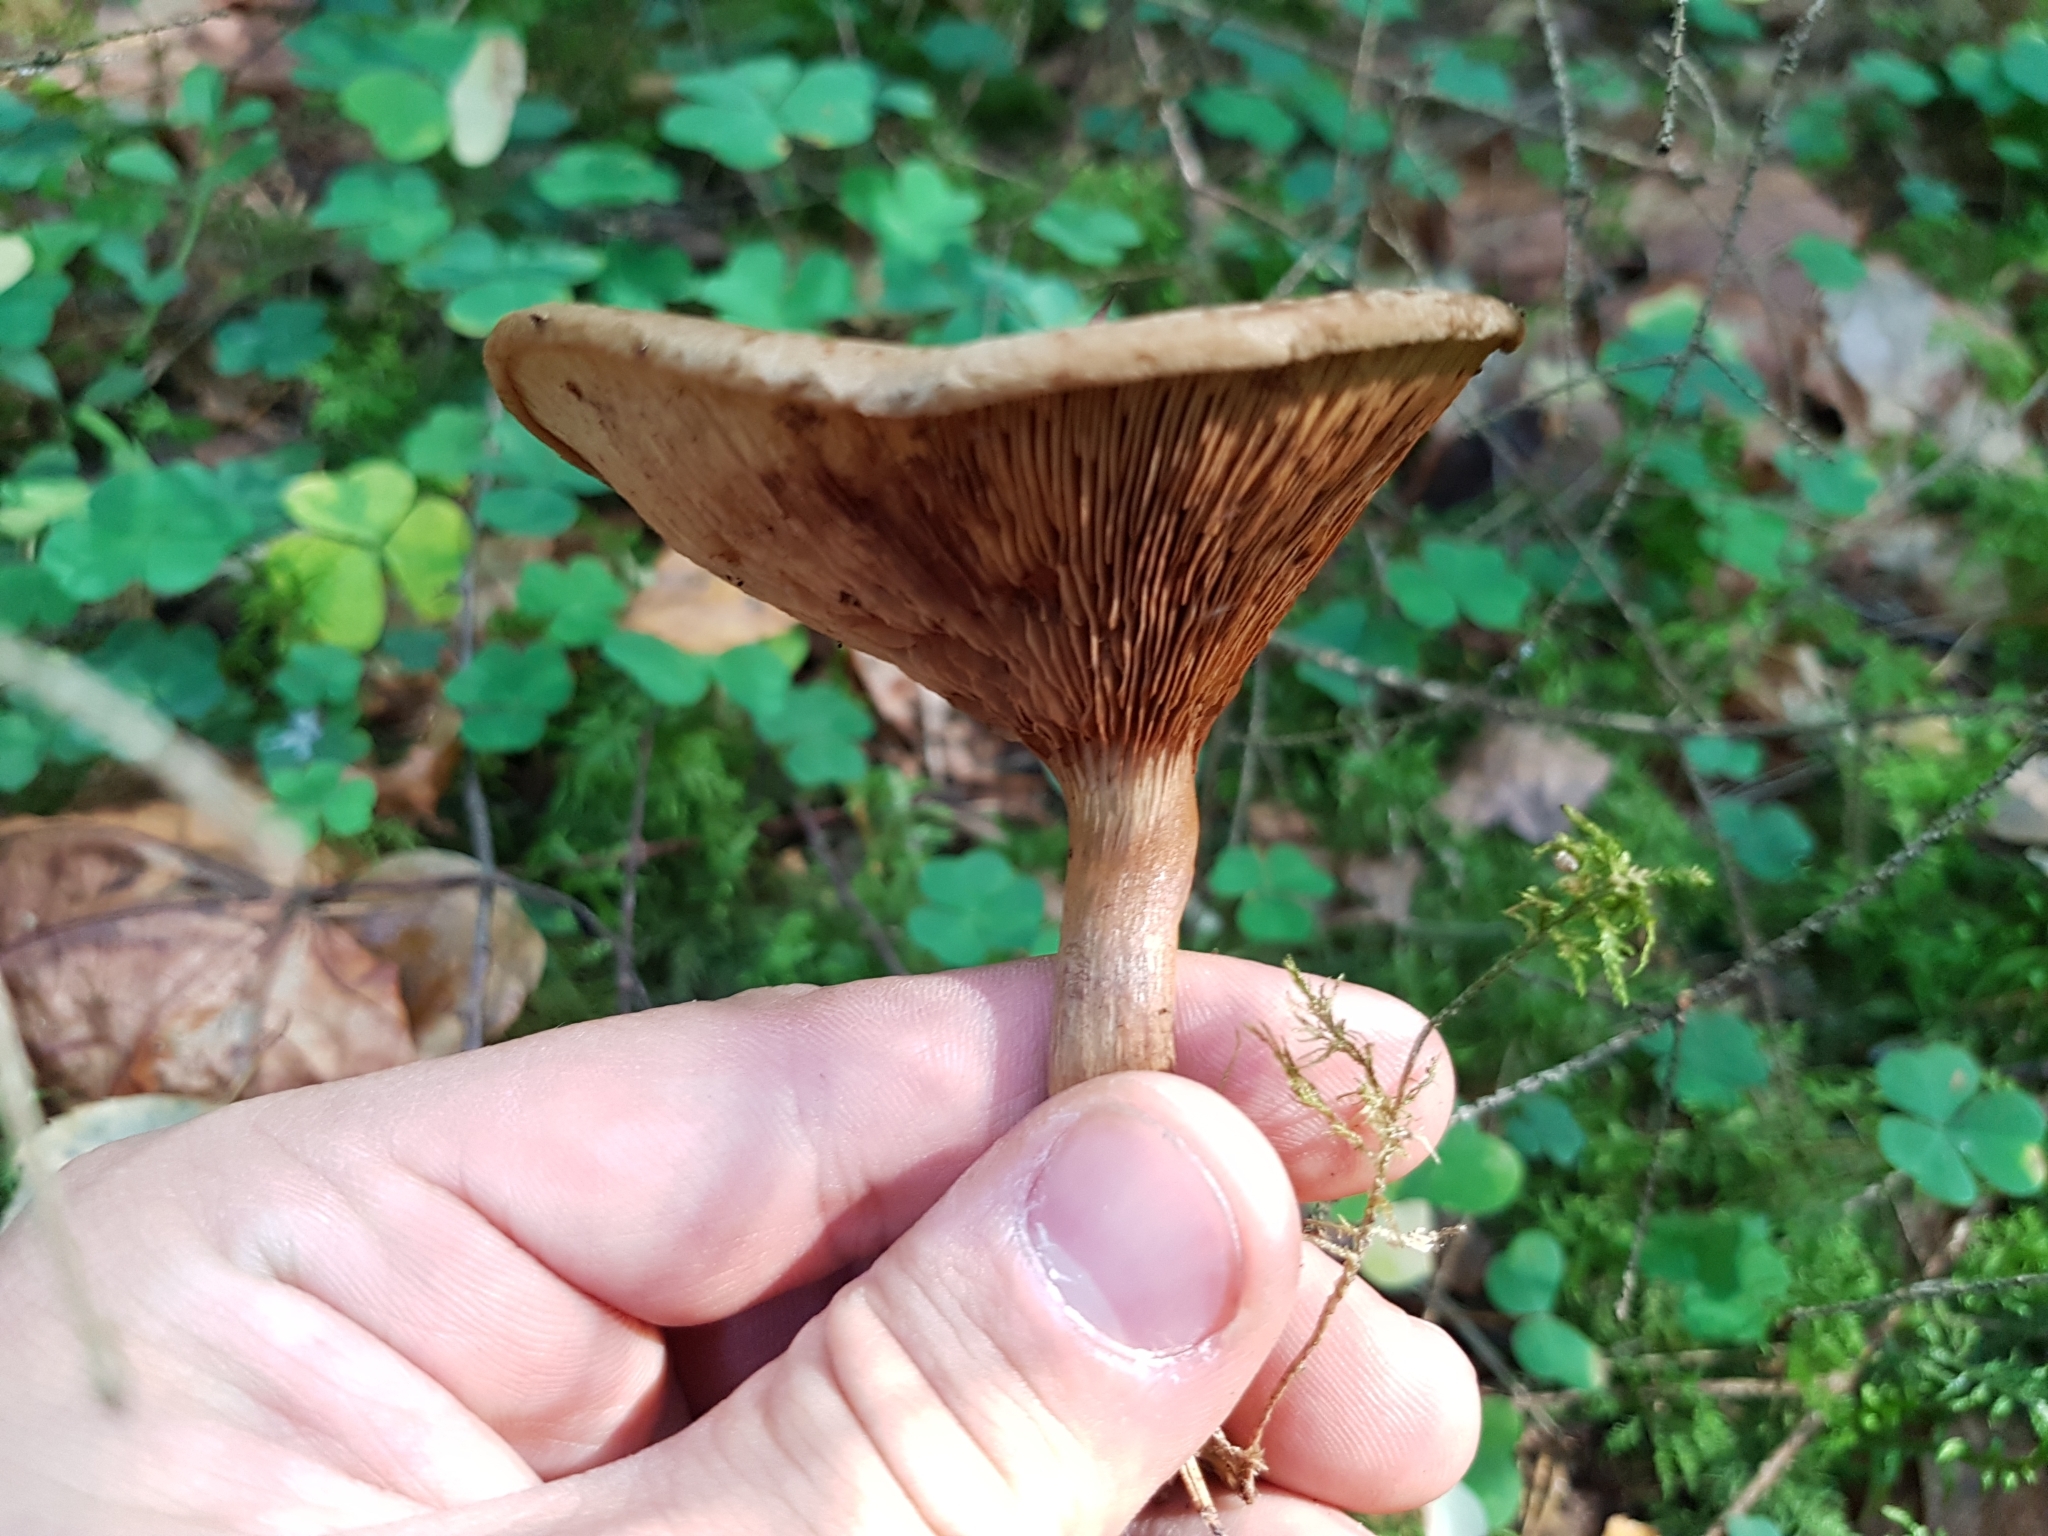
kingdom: Fungi
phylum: Basidiomycota
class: Agaricomycetes
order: Boletales
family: Paxillaceae
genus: Paxillus
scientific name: Paxillus involutus
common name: Brown roll rim
